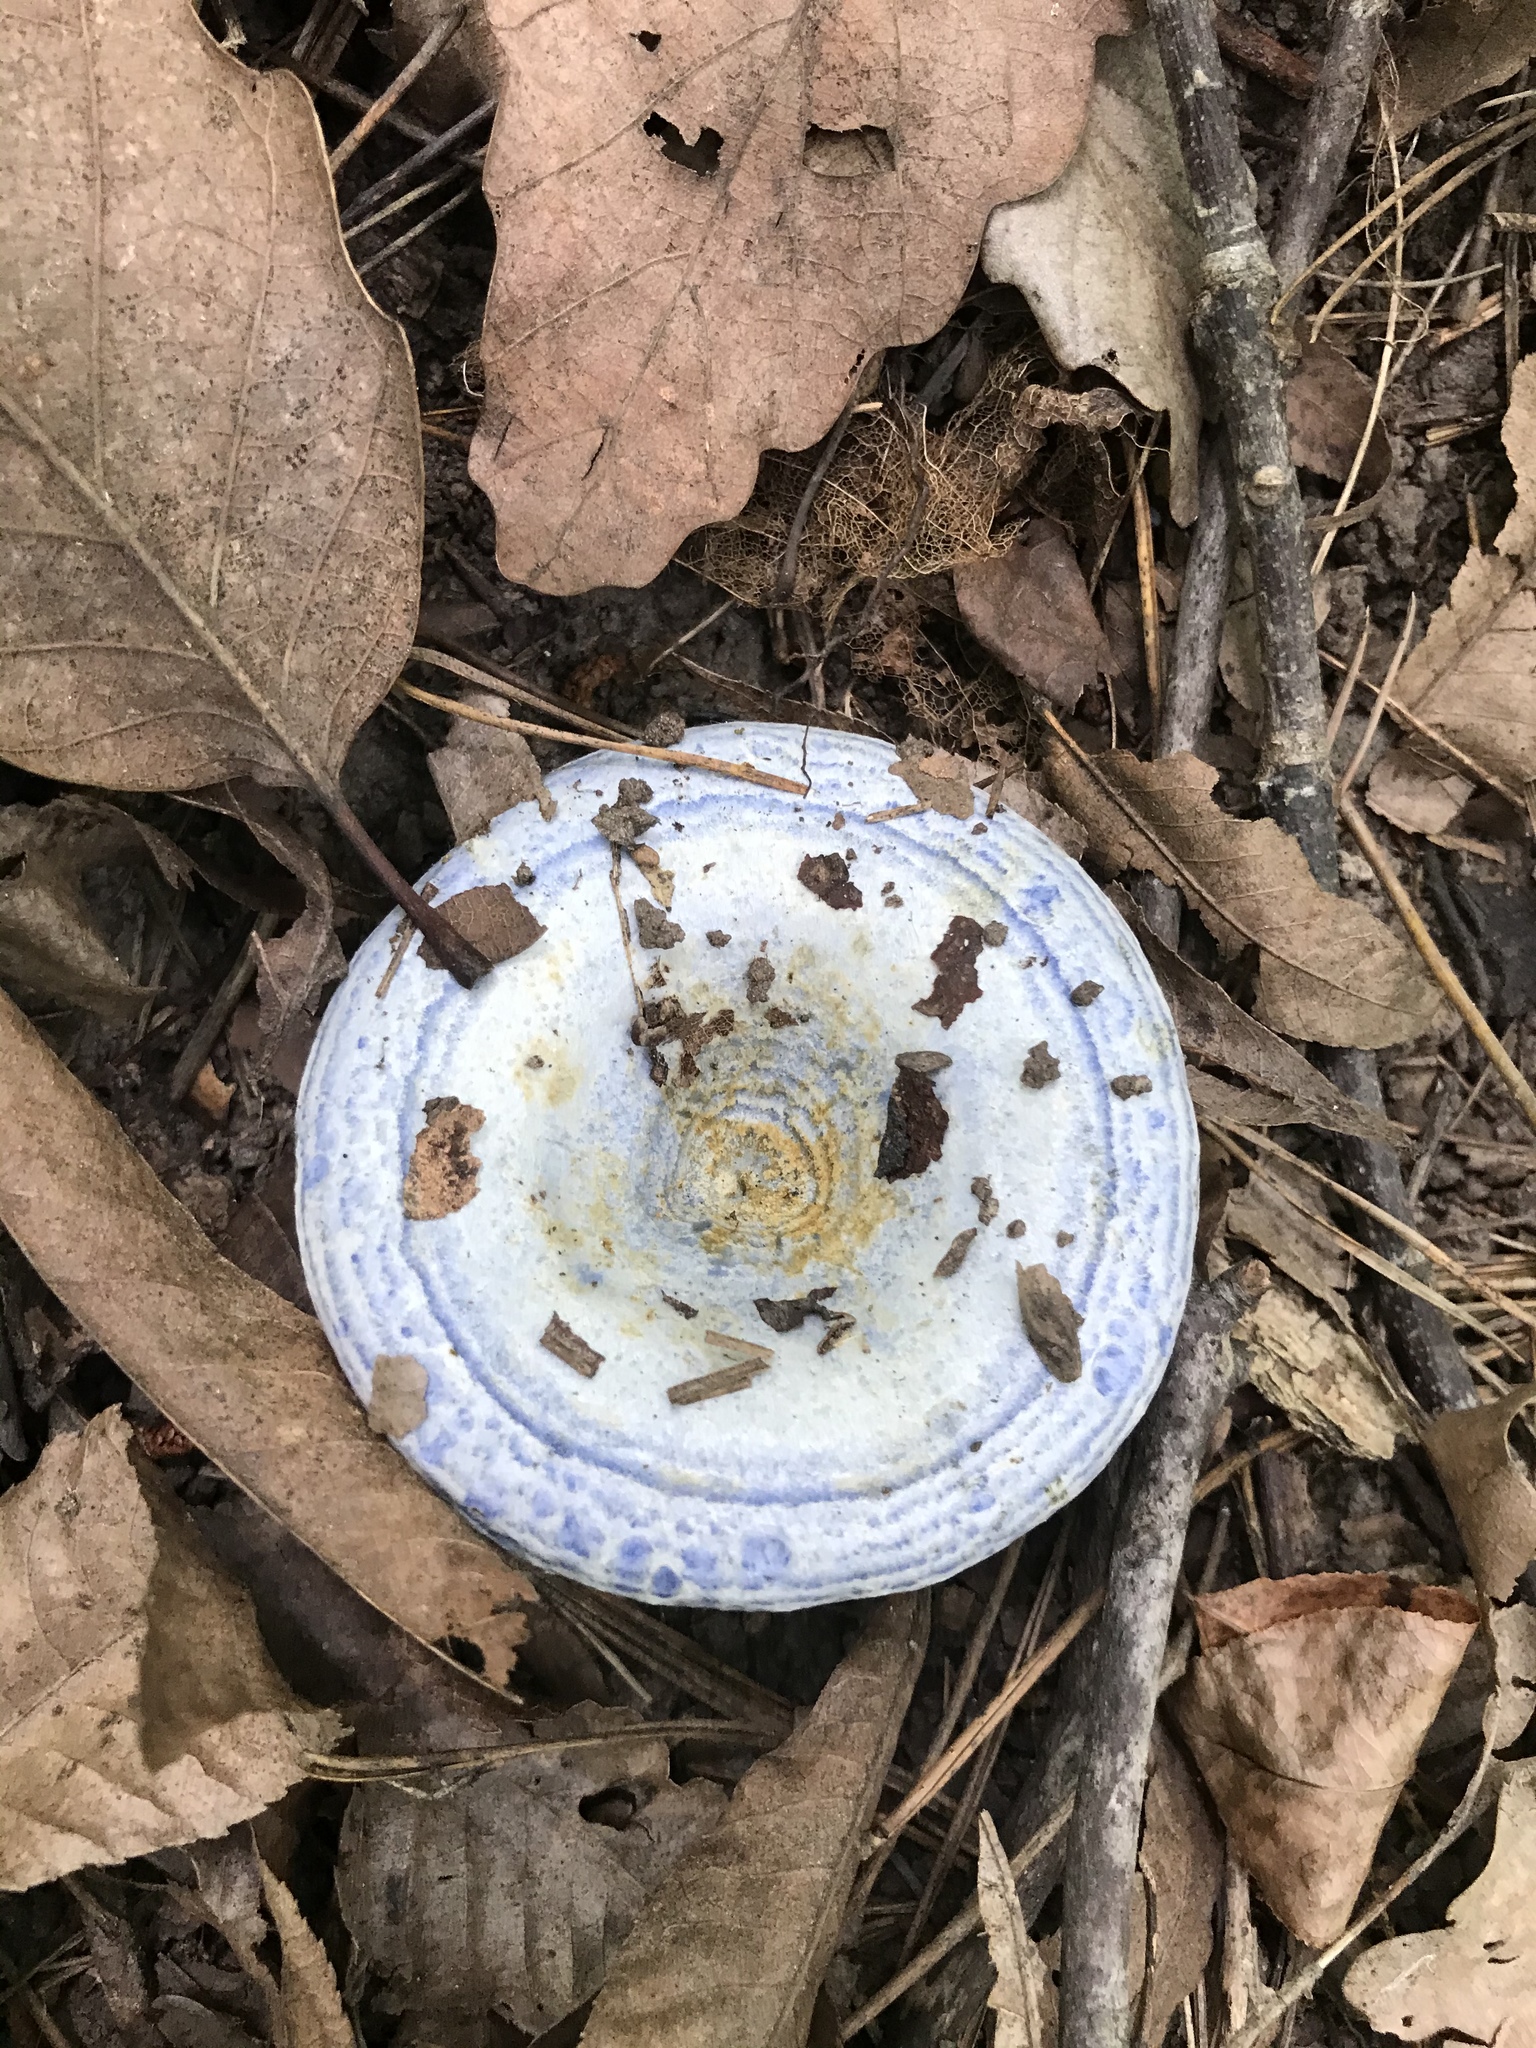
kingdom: Fungi
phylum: Basidiomycota
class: Agaricomycetes
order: Russulales
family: Russulaceae
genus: Lactarius
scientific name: Lactarius indigo
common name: Indigo milk cap
